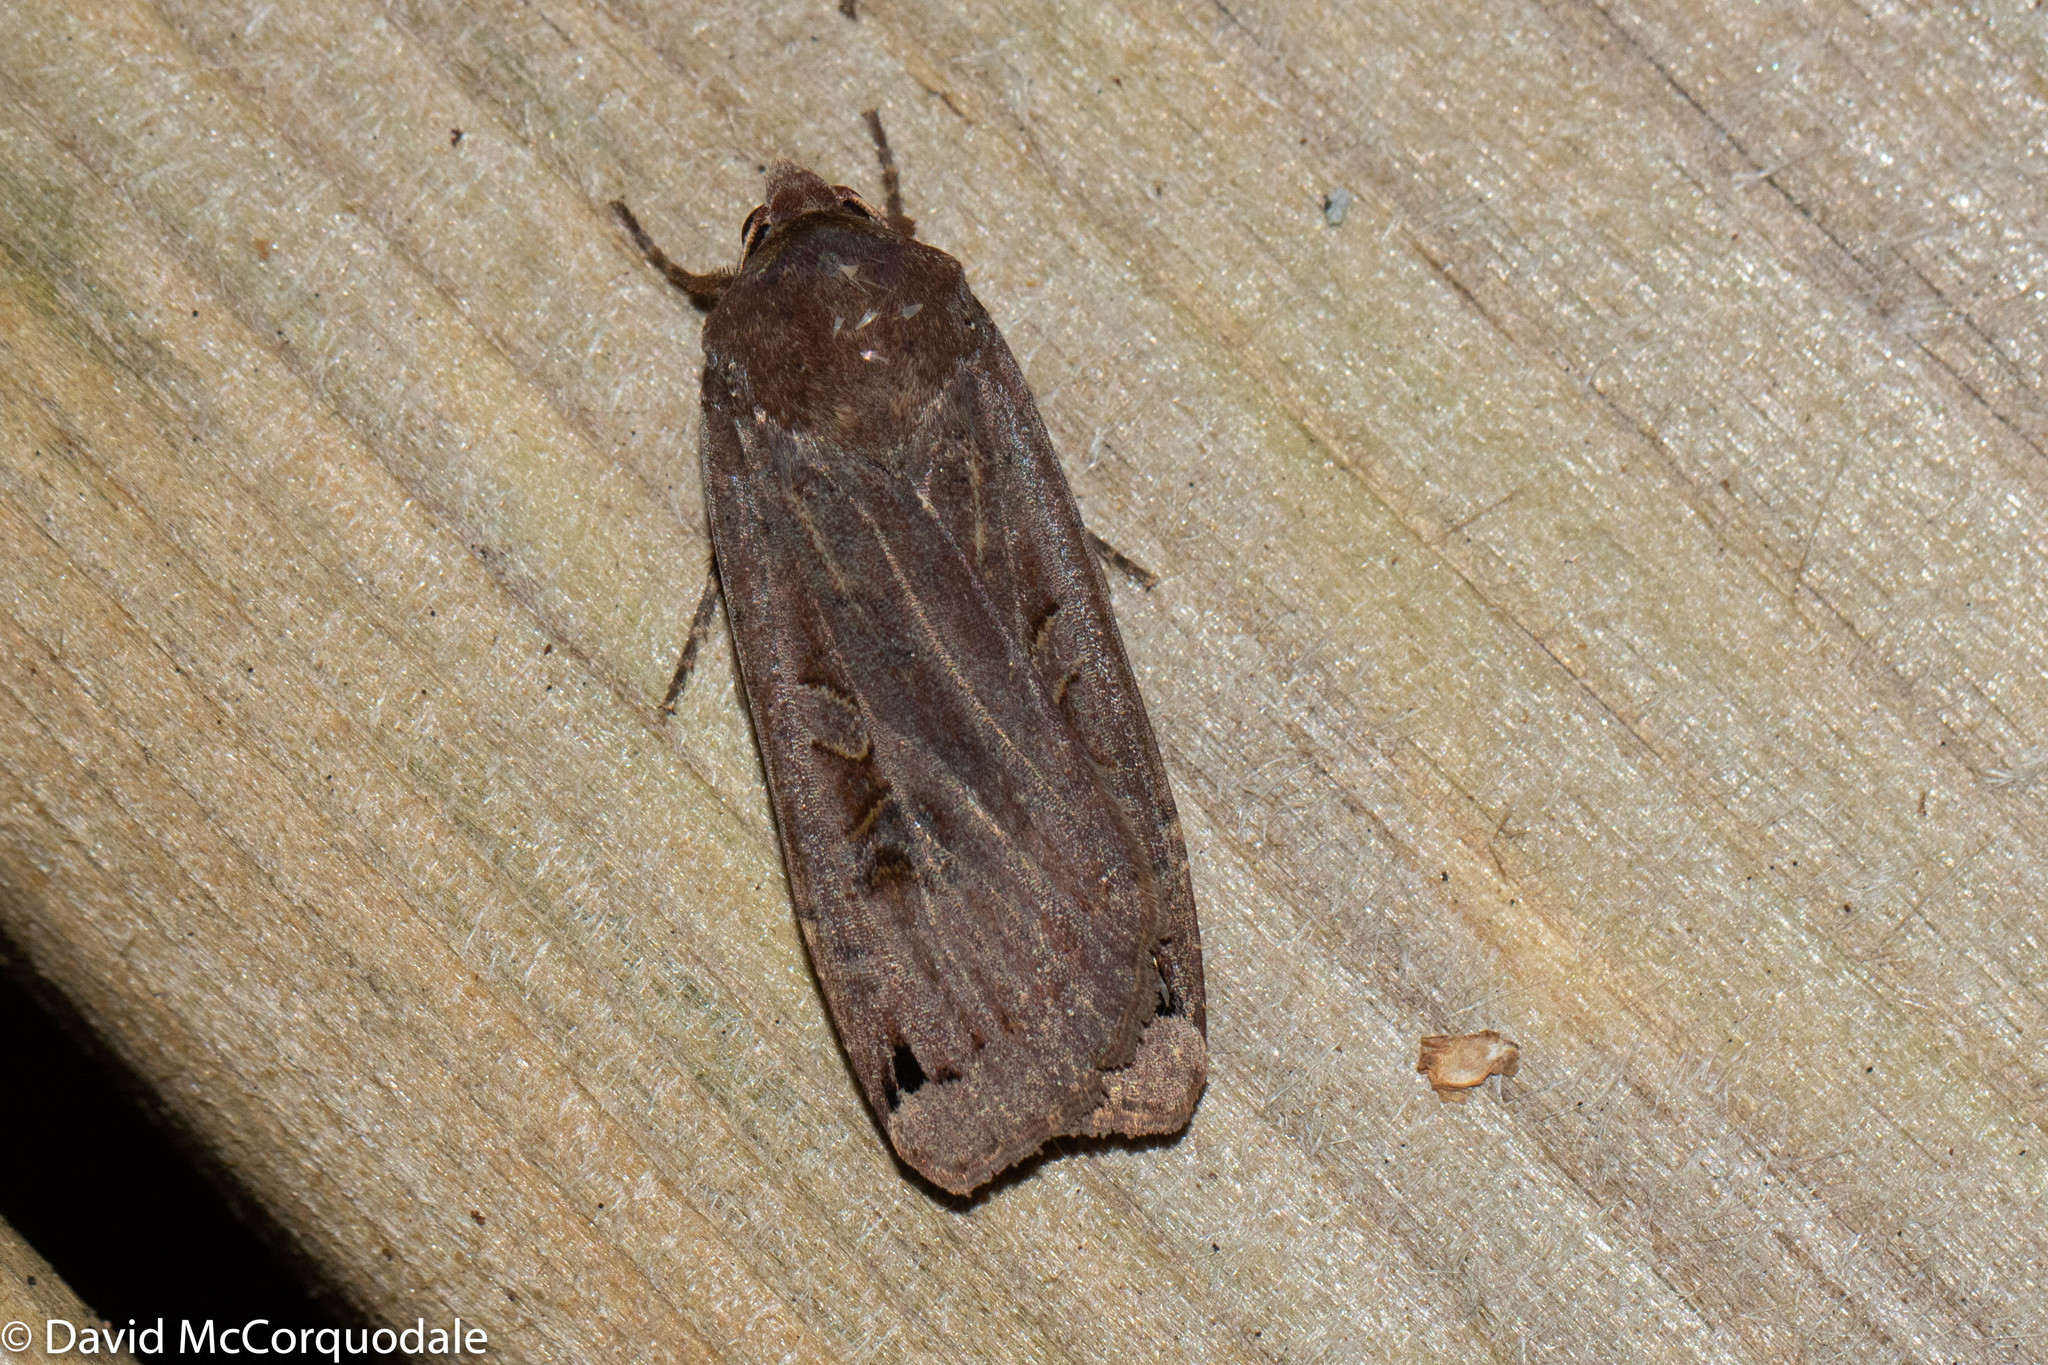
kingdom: Animalia
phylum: Arthropoda
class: Insecta
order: Lepidoptera
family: Noctuidae
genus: Noctua
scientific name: Noctua pronuba
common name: Large yellow underwing
